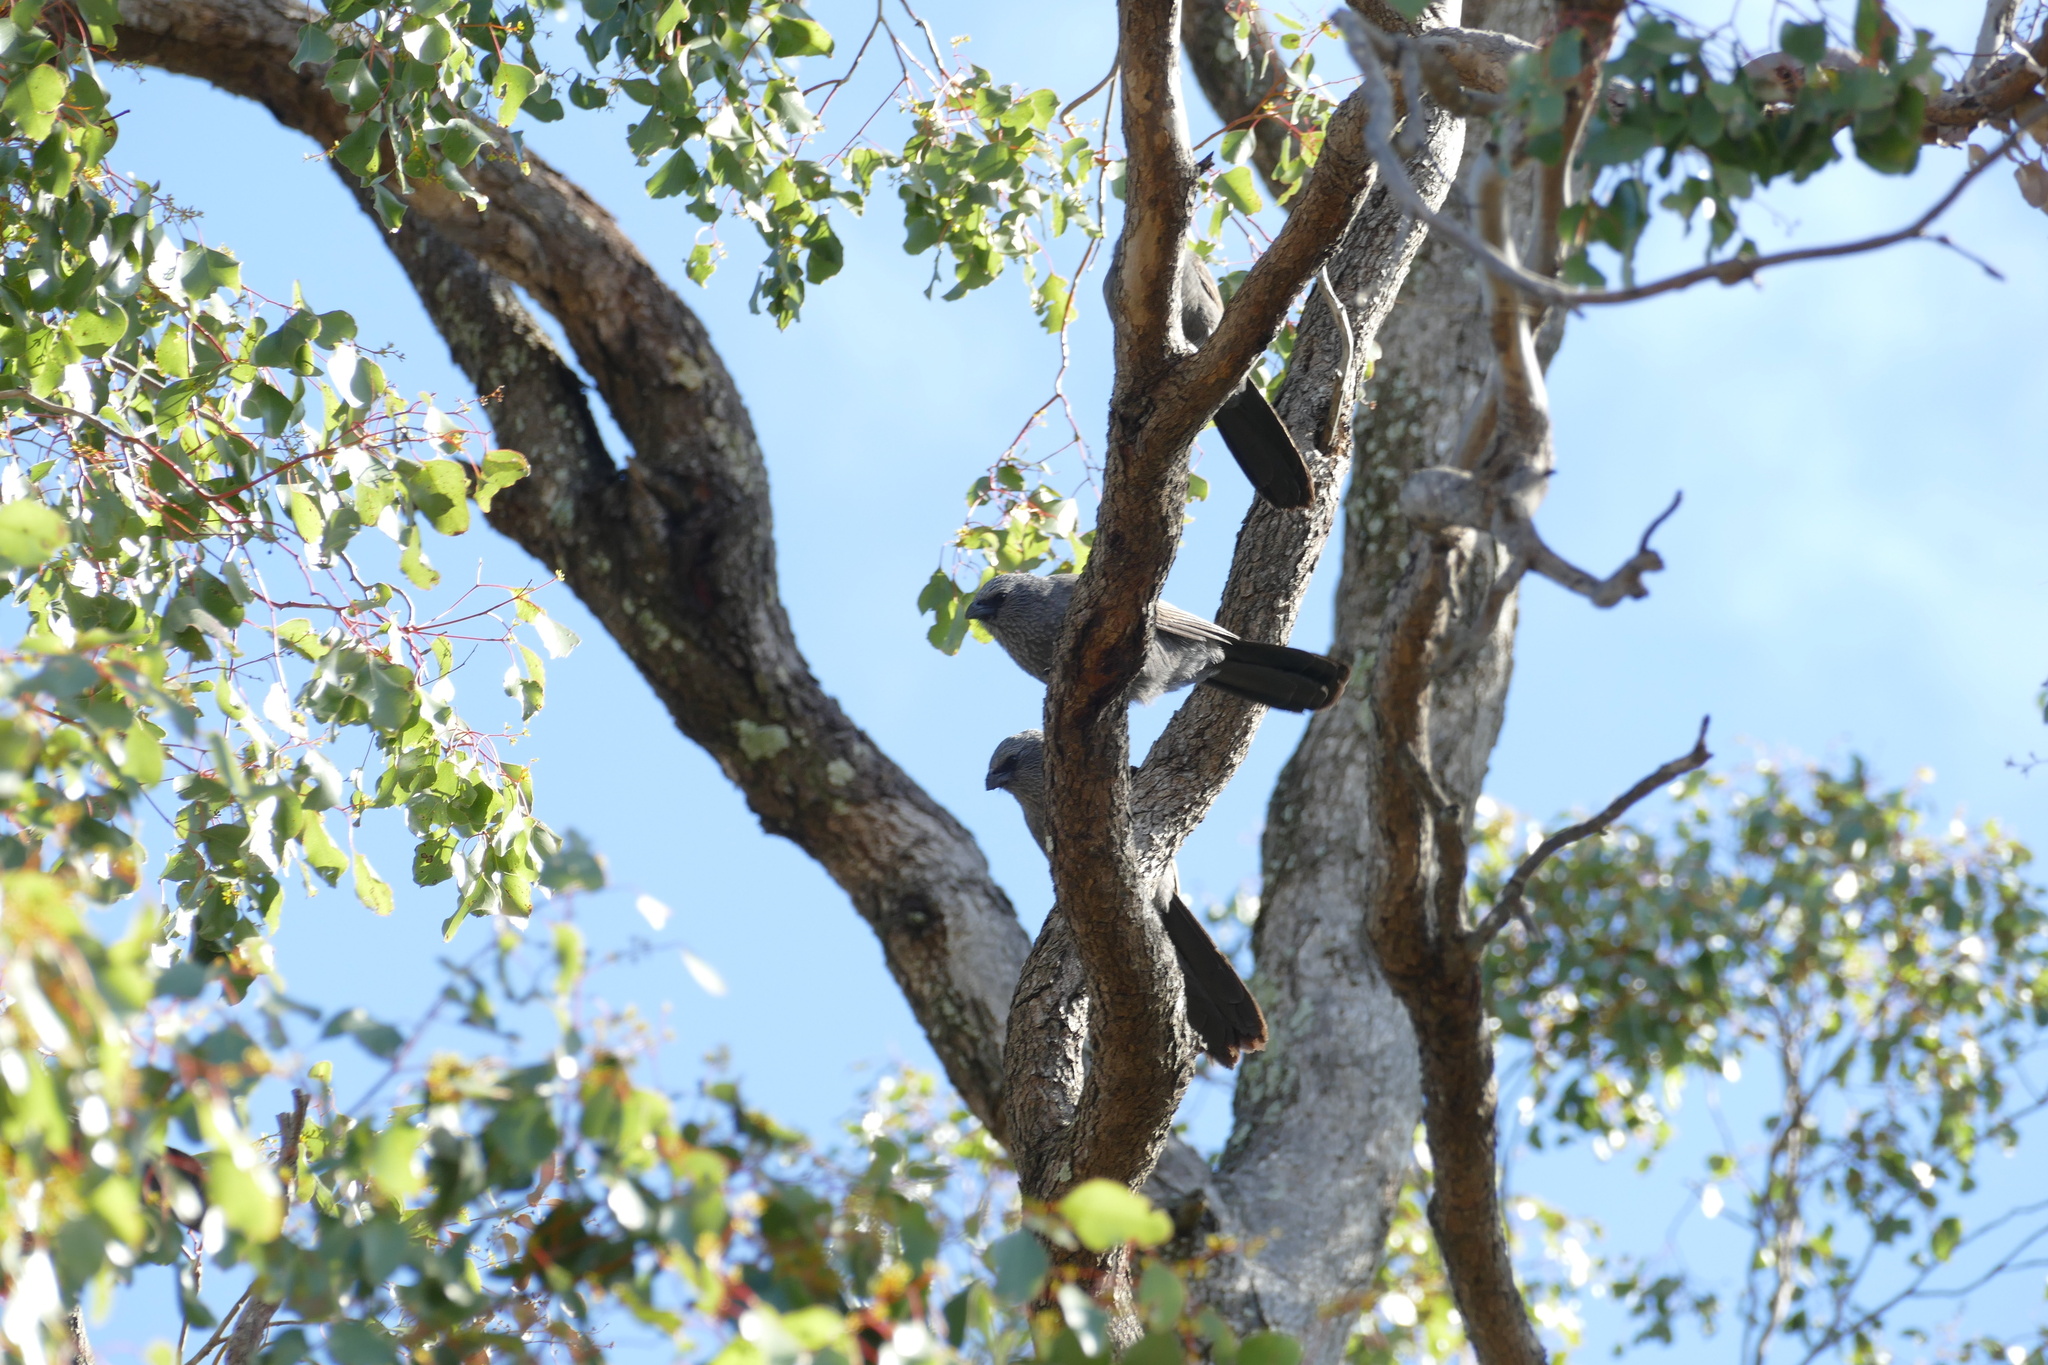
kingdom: Animalia
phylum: Chordata
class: Aves
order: Passeriformes
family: Corcoracidae
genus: Struthidea
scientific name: Struthidea cinerea
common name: Apostlebird
